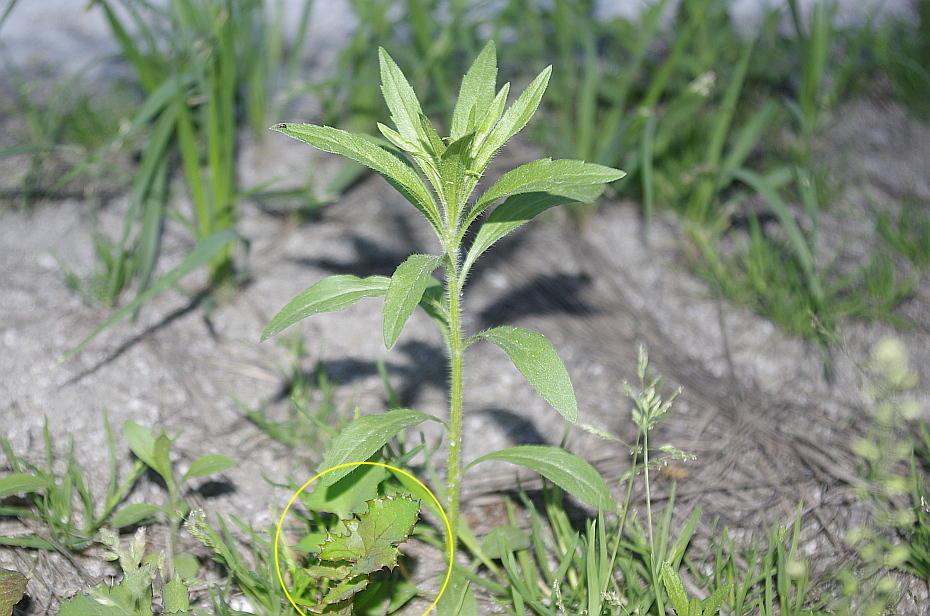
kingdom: Plantae
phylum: Tracheophyta
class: Magnoliopsida
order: Asterales
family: Asteraceae
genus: Sonchus
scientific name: Sonchus oleraceus
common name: Common sowthistle
